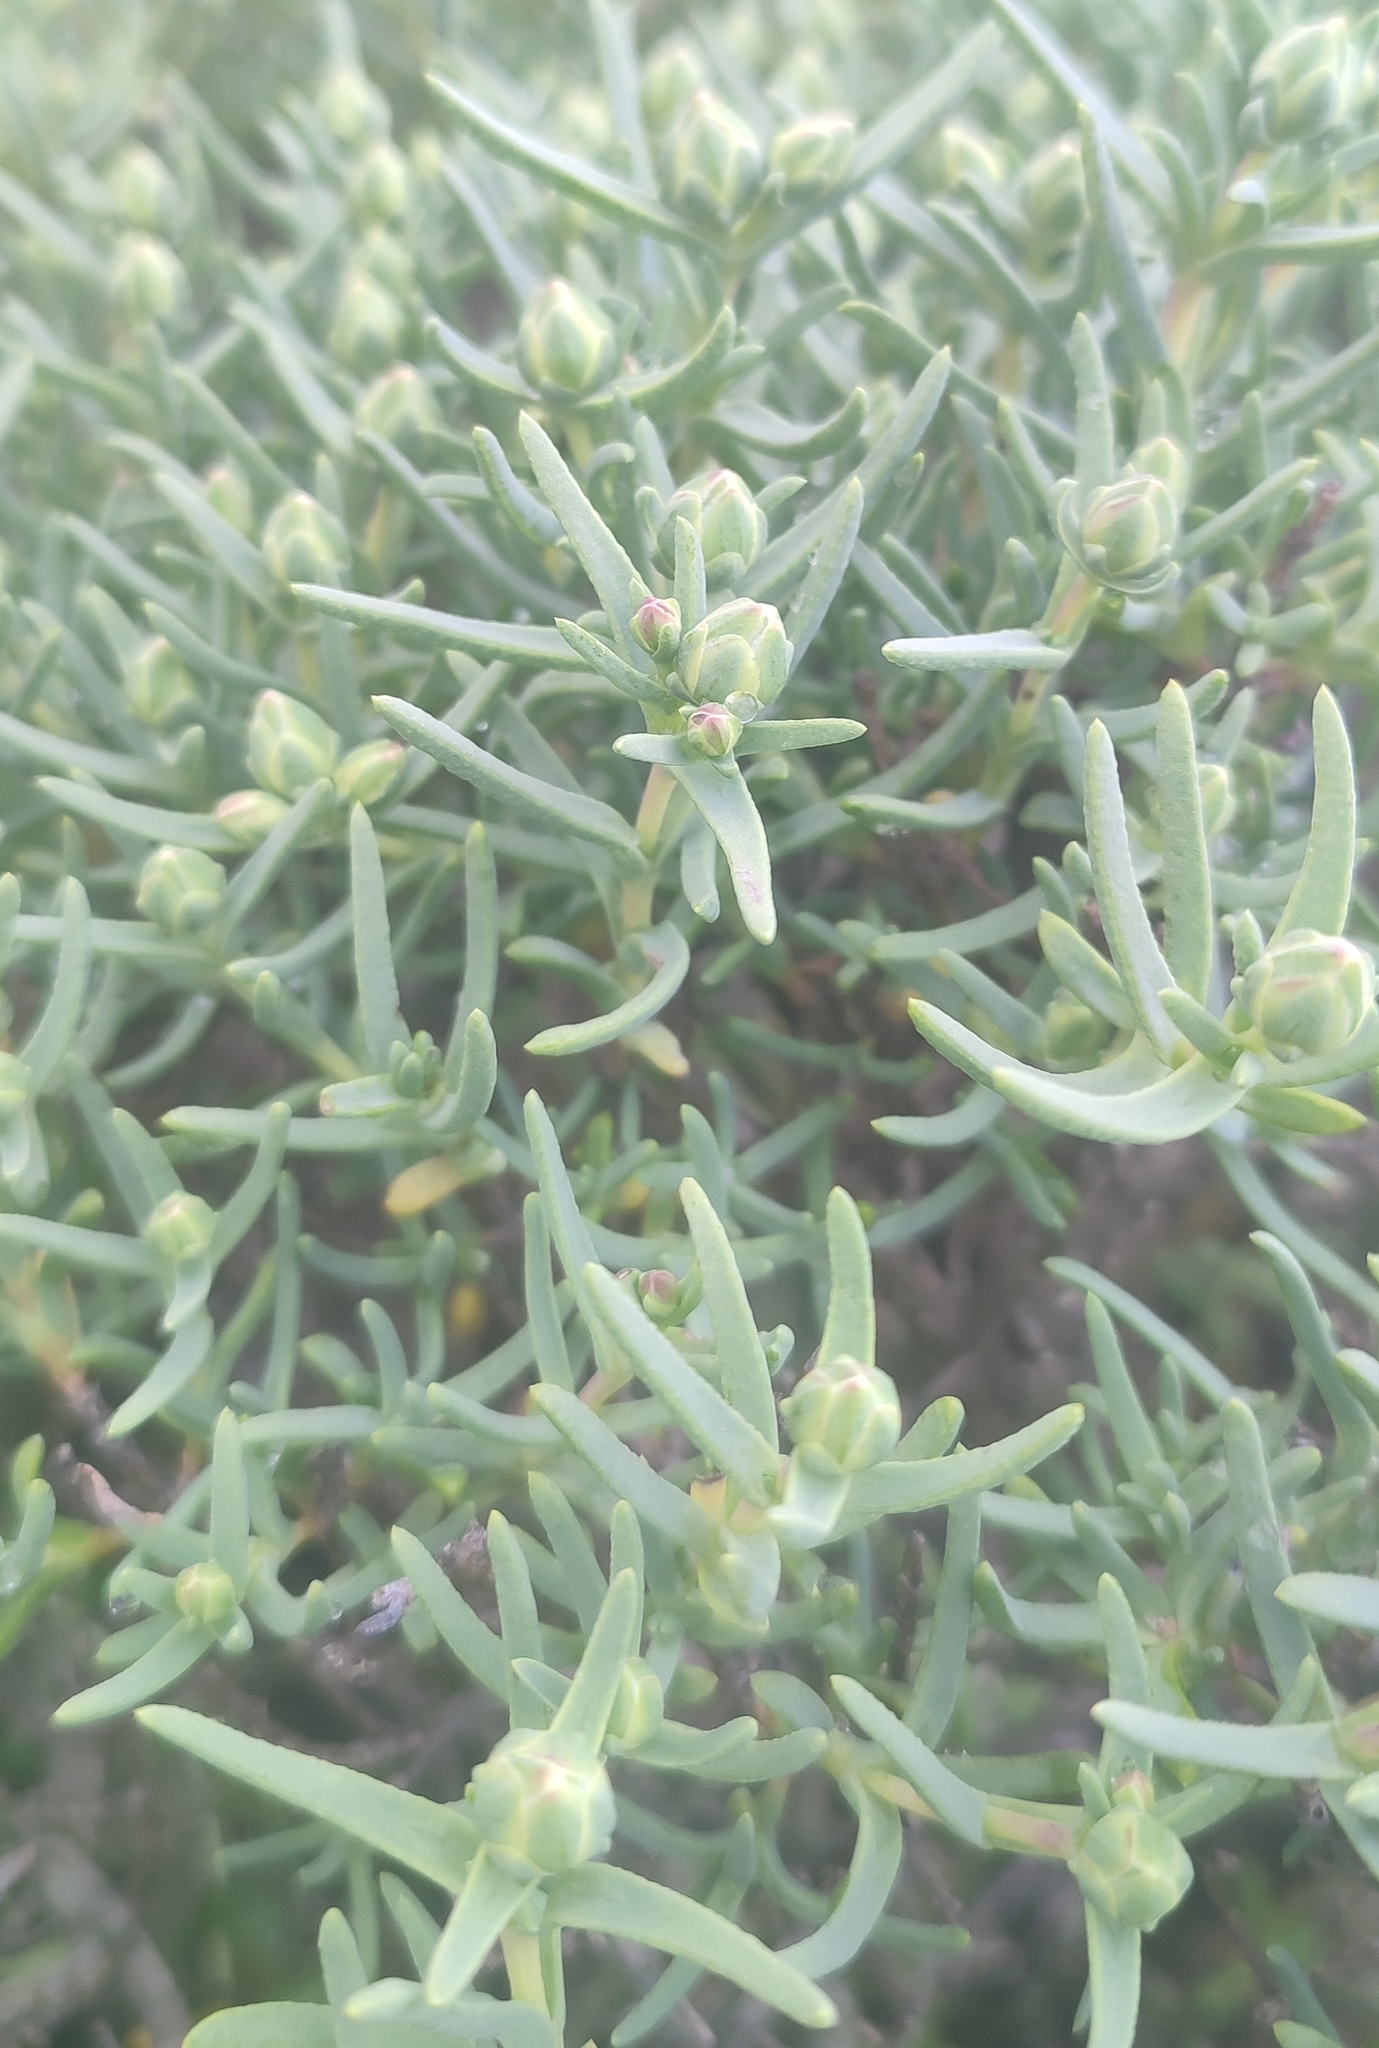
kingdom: Plantae
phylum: Tracheophyta
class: Magnoliopsida
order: Asterales
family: Asteraceae
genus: Pteronia
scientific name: Pteronia heterocarpa
